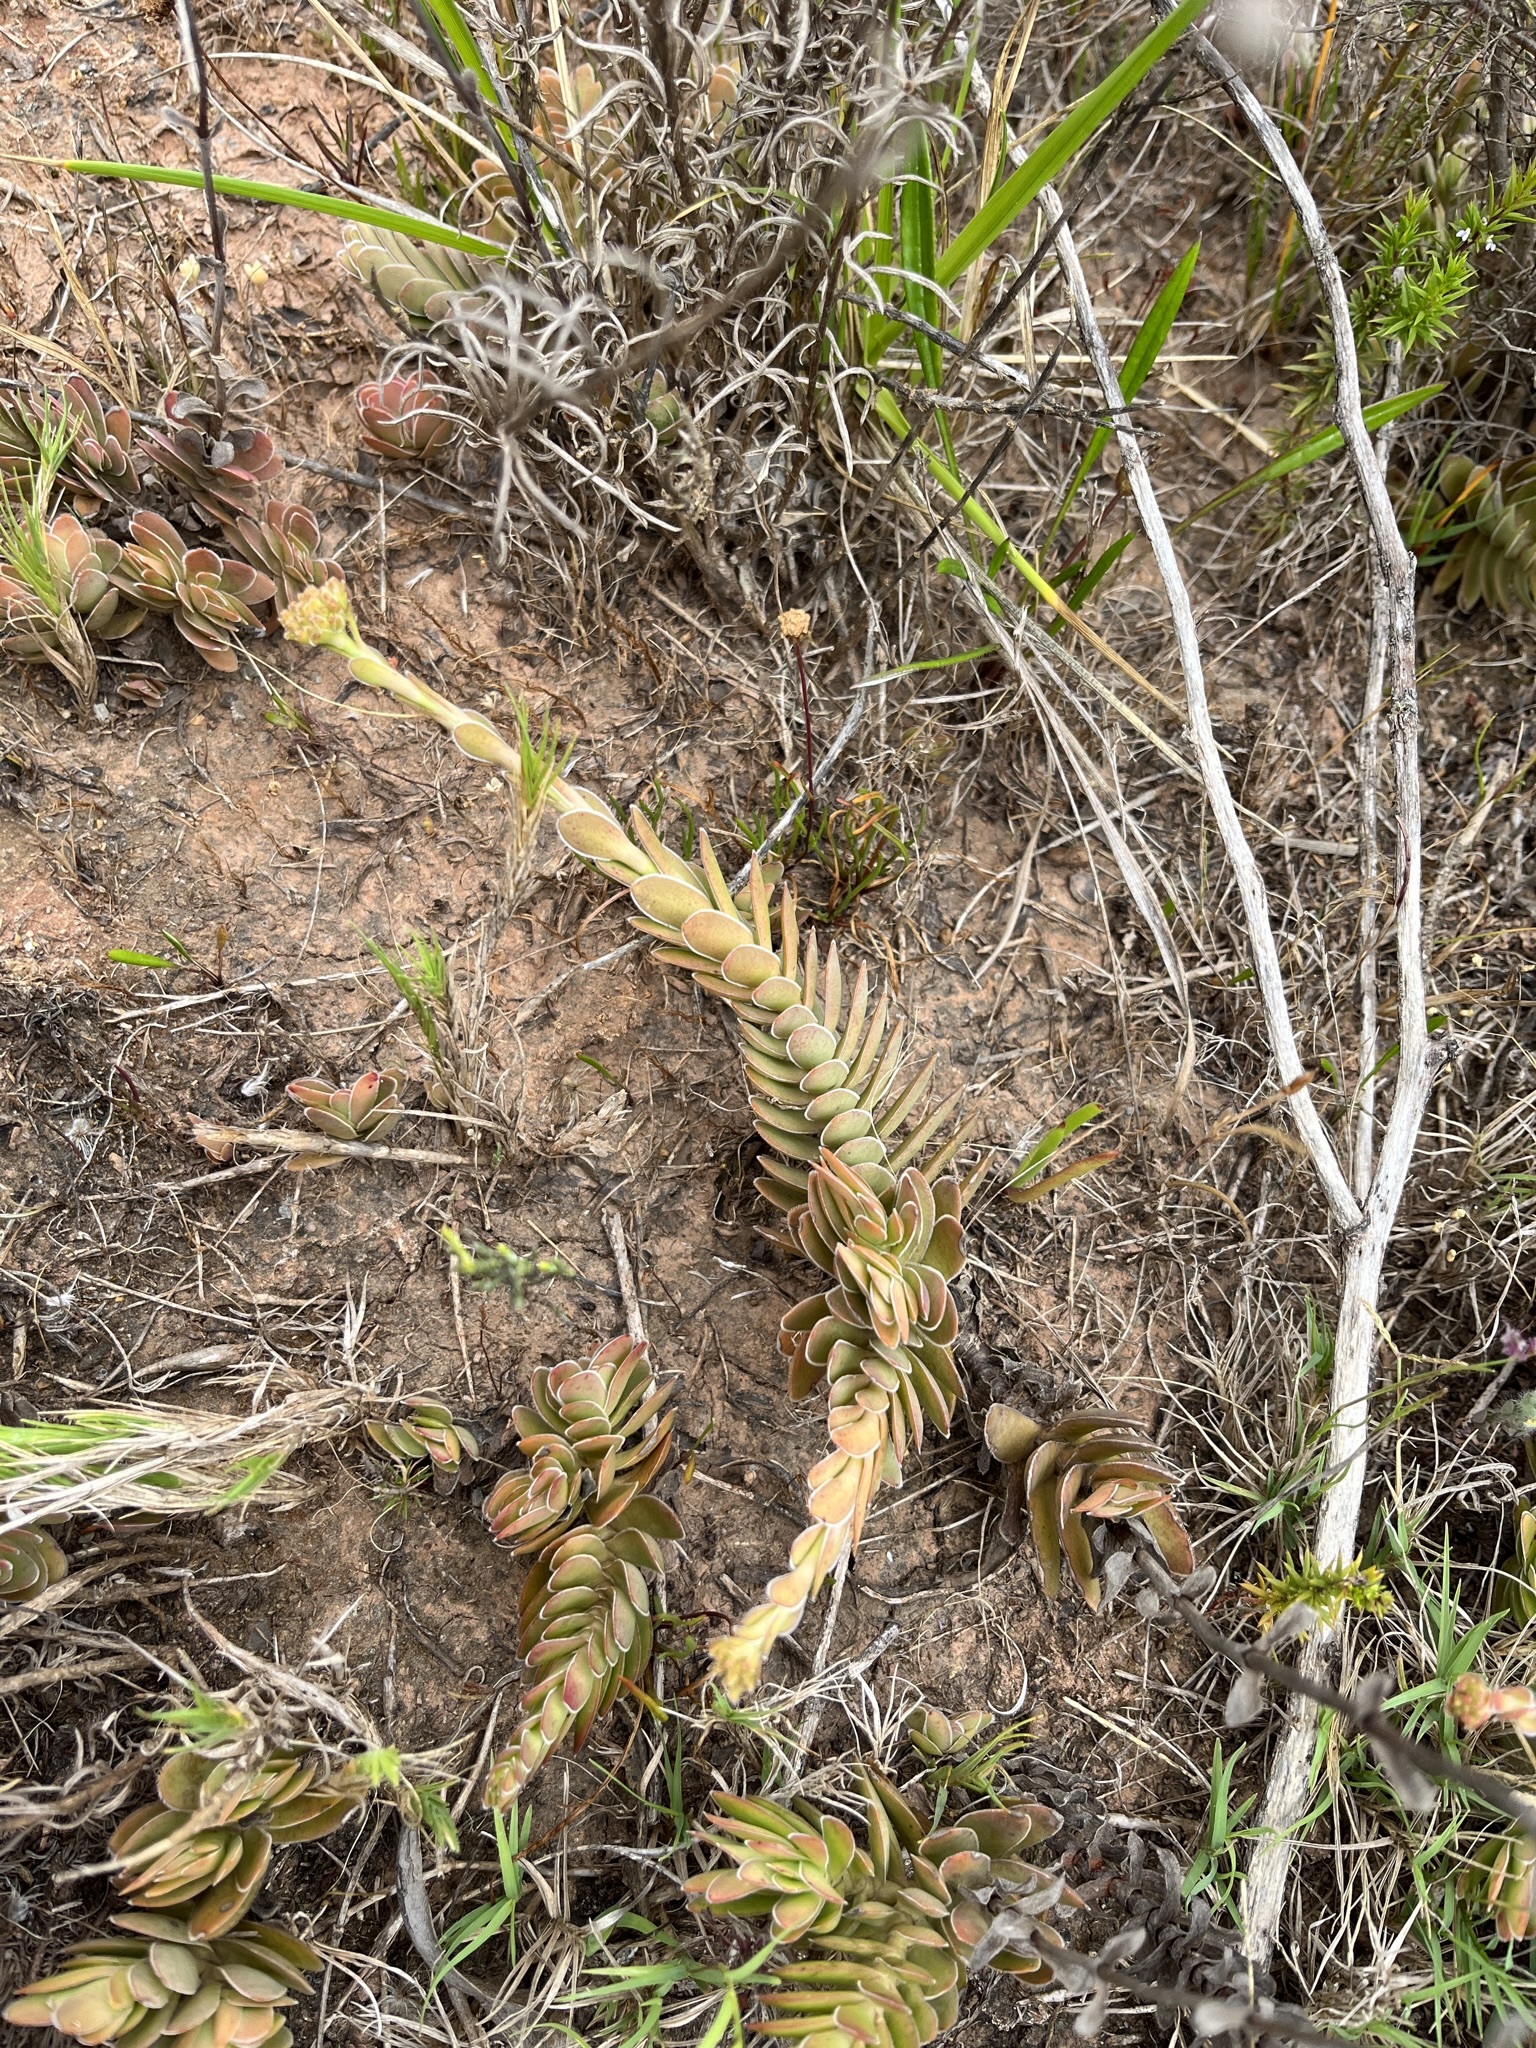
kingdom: Plantae
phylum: Tracheophyta
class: Magnoliopsida
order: Saxifragales
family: Crassulaceae
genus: Crassula
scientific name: Crassula ciliata
